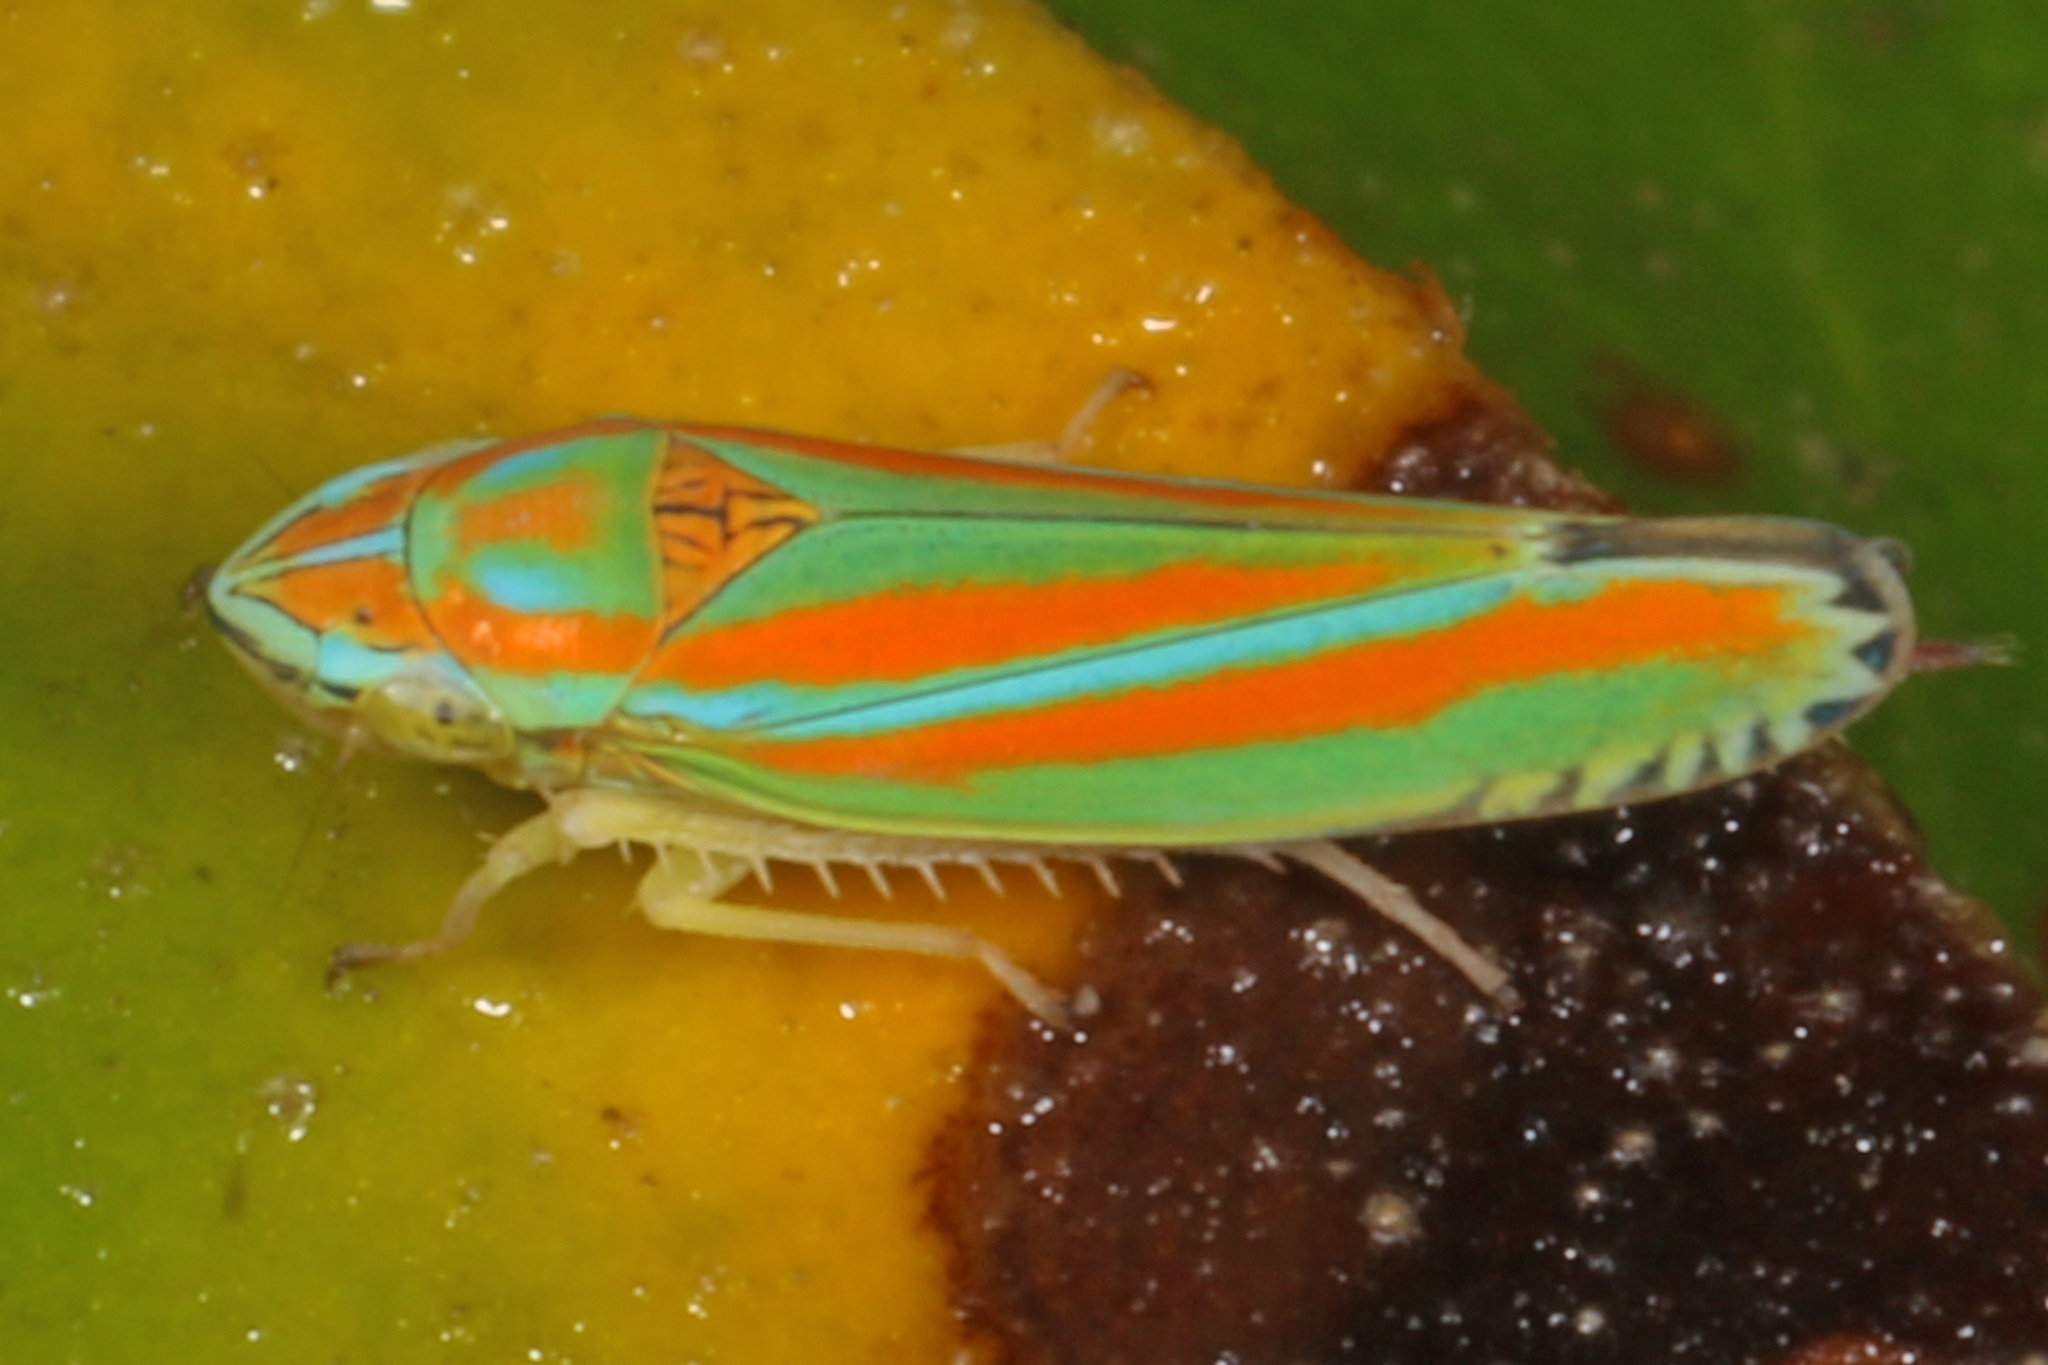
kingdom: Animalia
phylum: Arthropoda
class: Insecta
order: Hemiptera
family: Cicadellidae
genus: Graphocephala
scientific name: Graphocephala versuta
